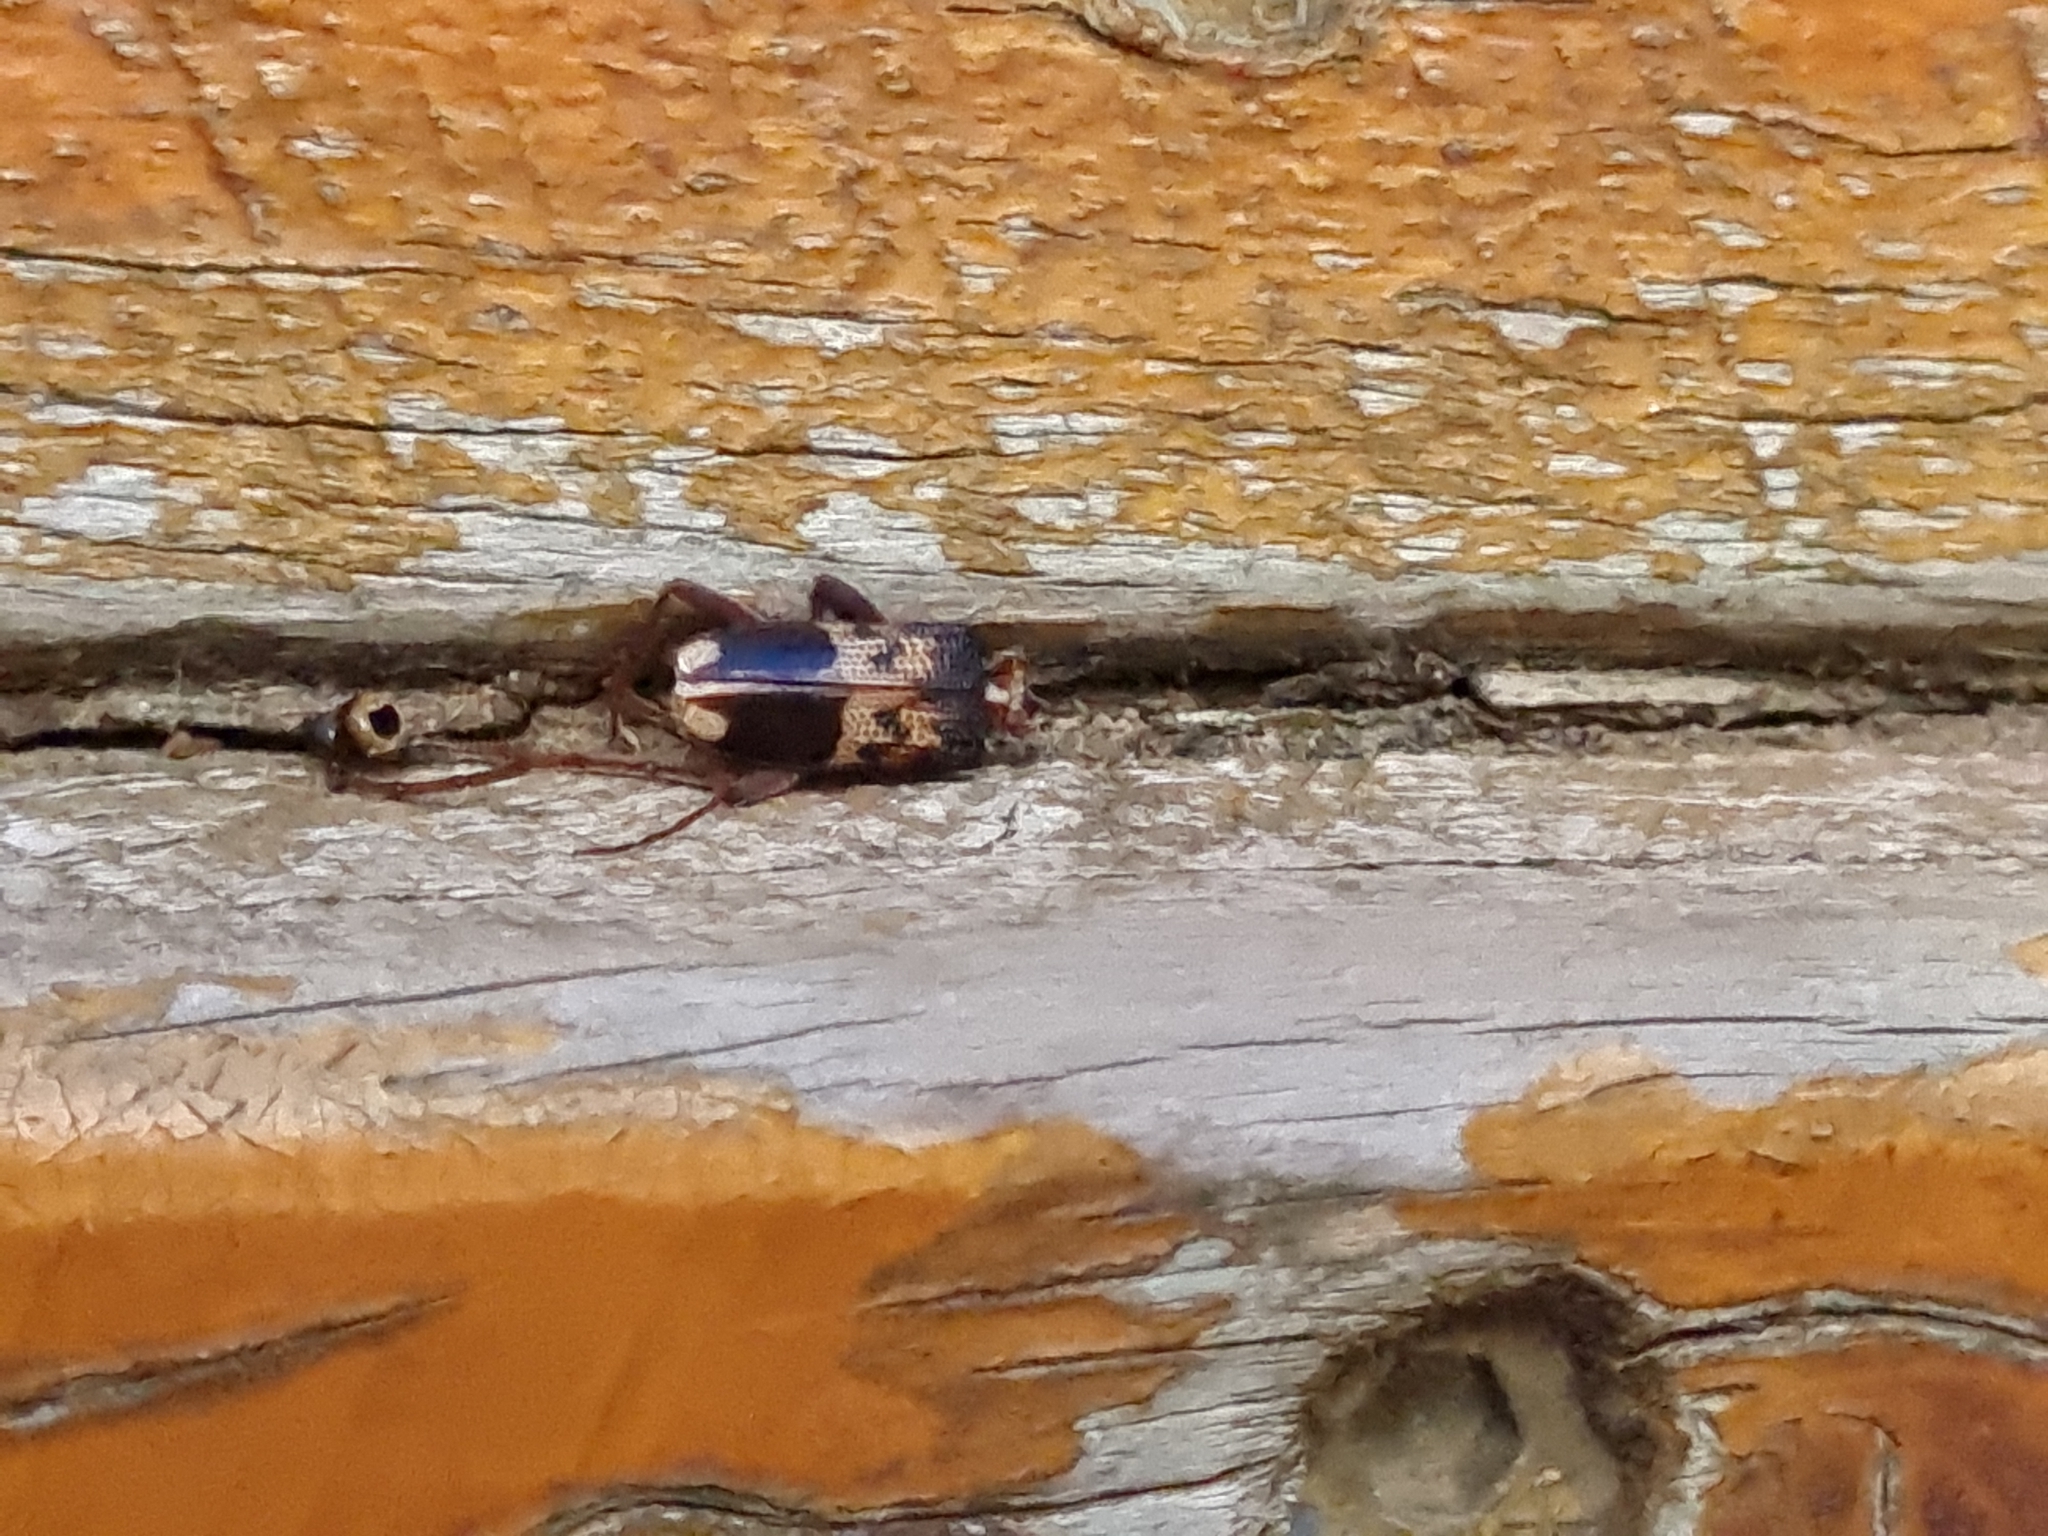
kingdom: Animalia
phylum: Arthropoda
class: Insecta
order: Coleoptera
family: Cerambycidae
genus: Phoracantha
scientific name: Phoracantha semipunctata
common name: Eucalyptus longhorn borer
